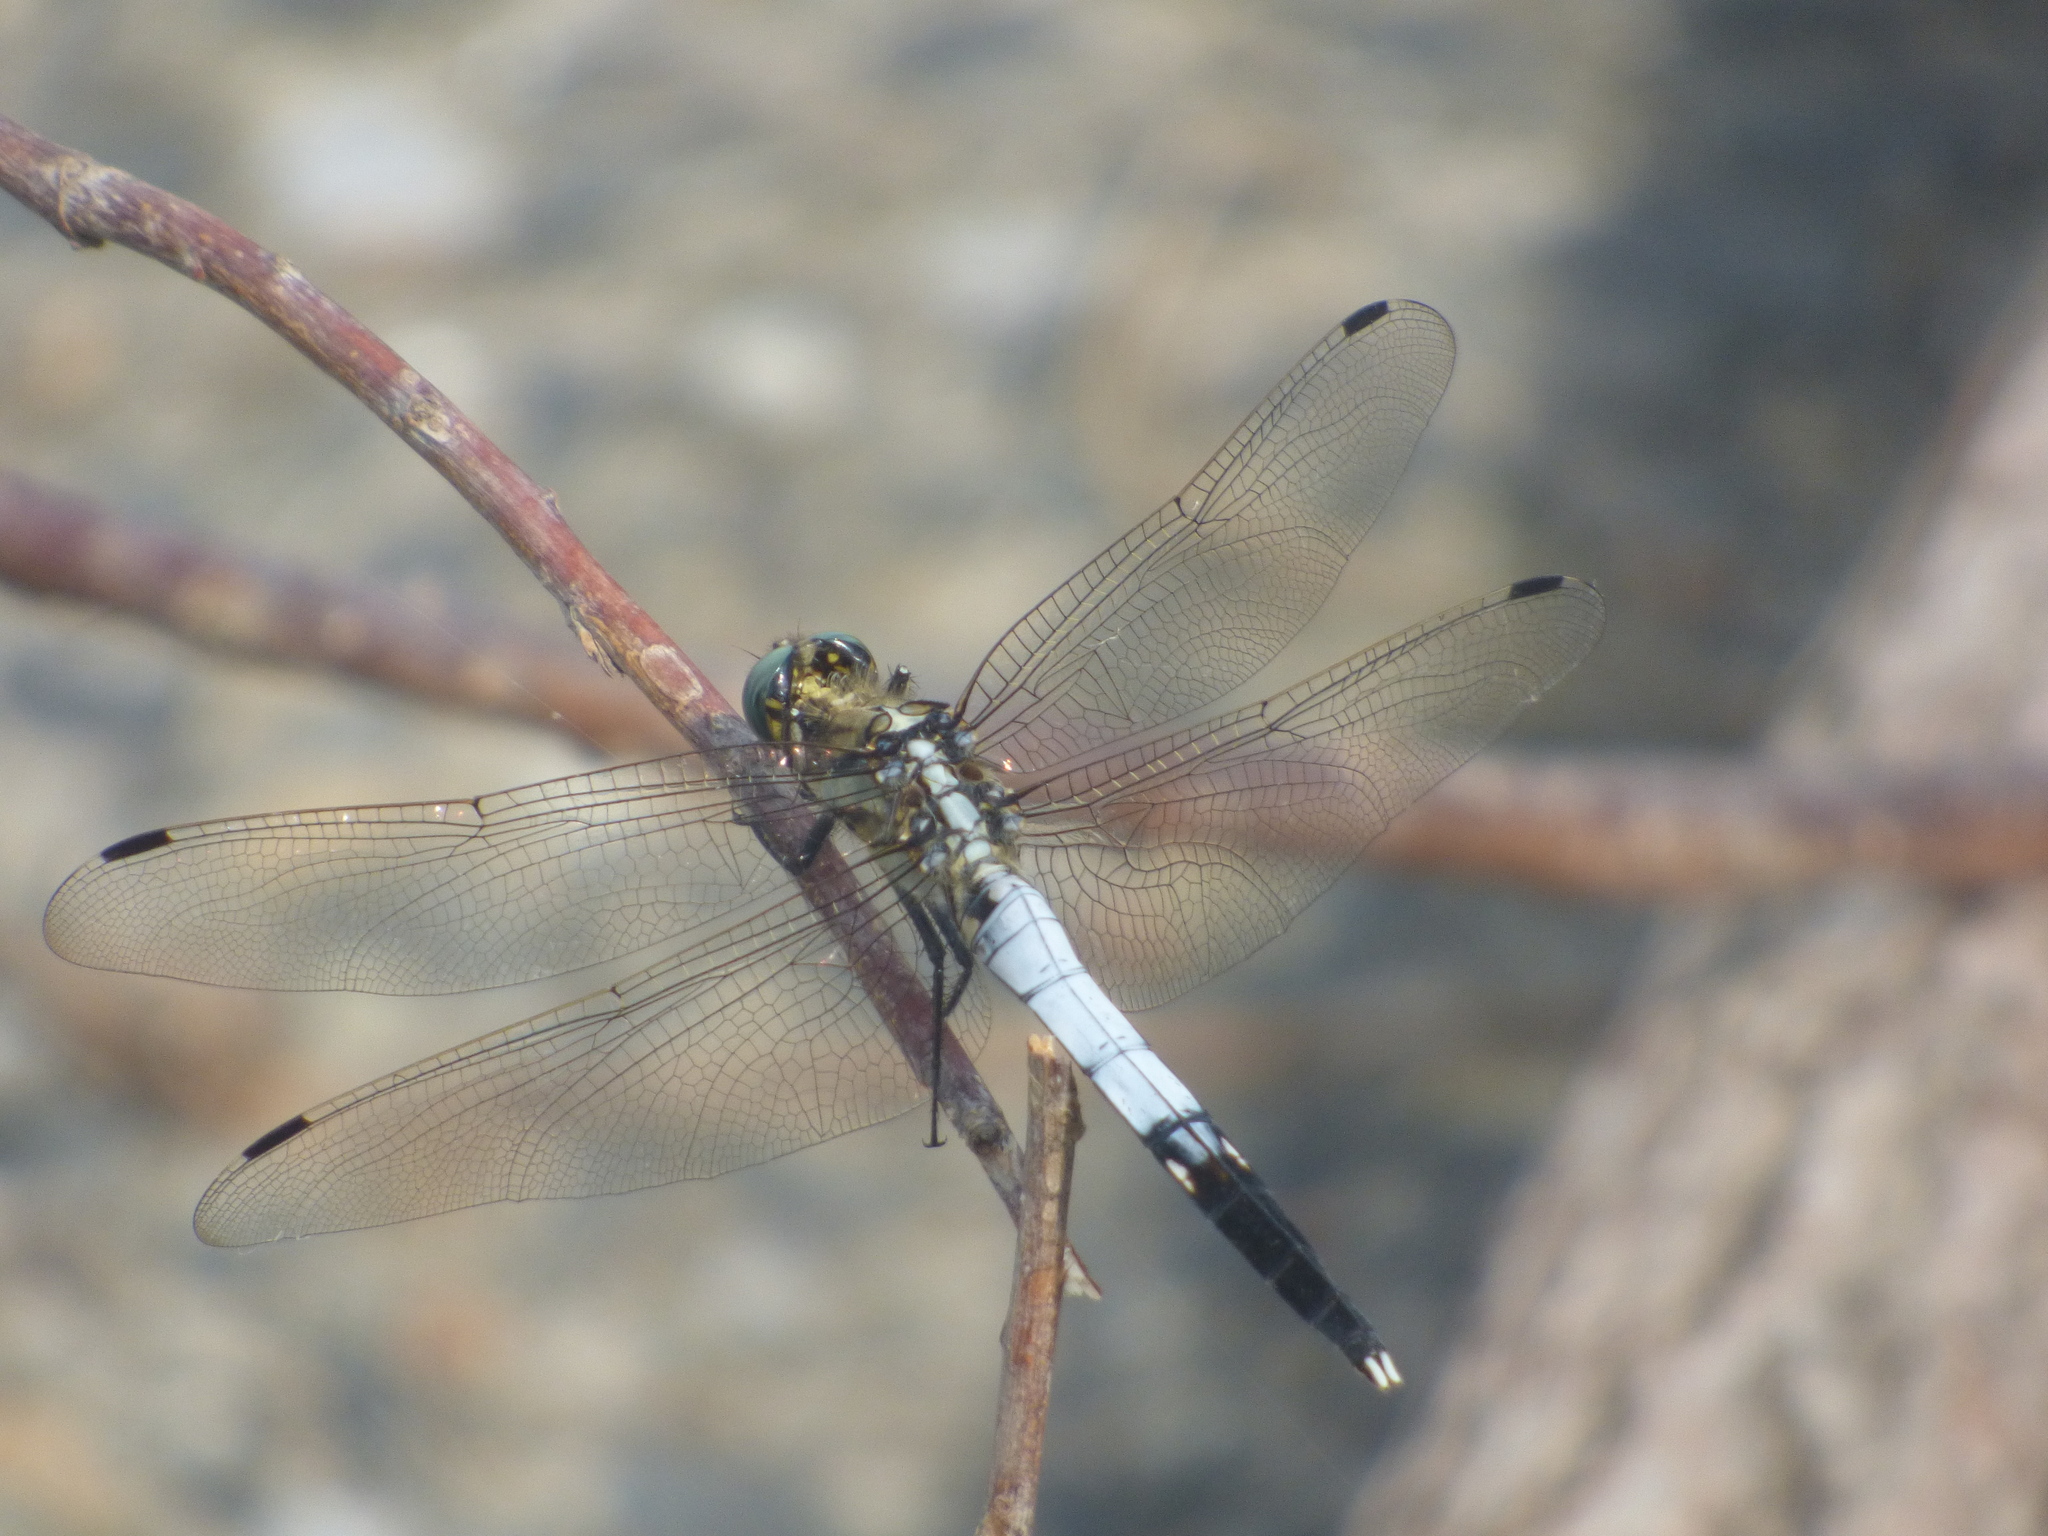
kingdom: Animalia
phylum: Arthropoda
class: Insecta
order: Odonata
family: Libellulidae
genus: Orthetrum
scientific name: Orthetrum albistylum
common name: White-tailed skimmer
